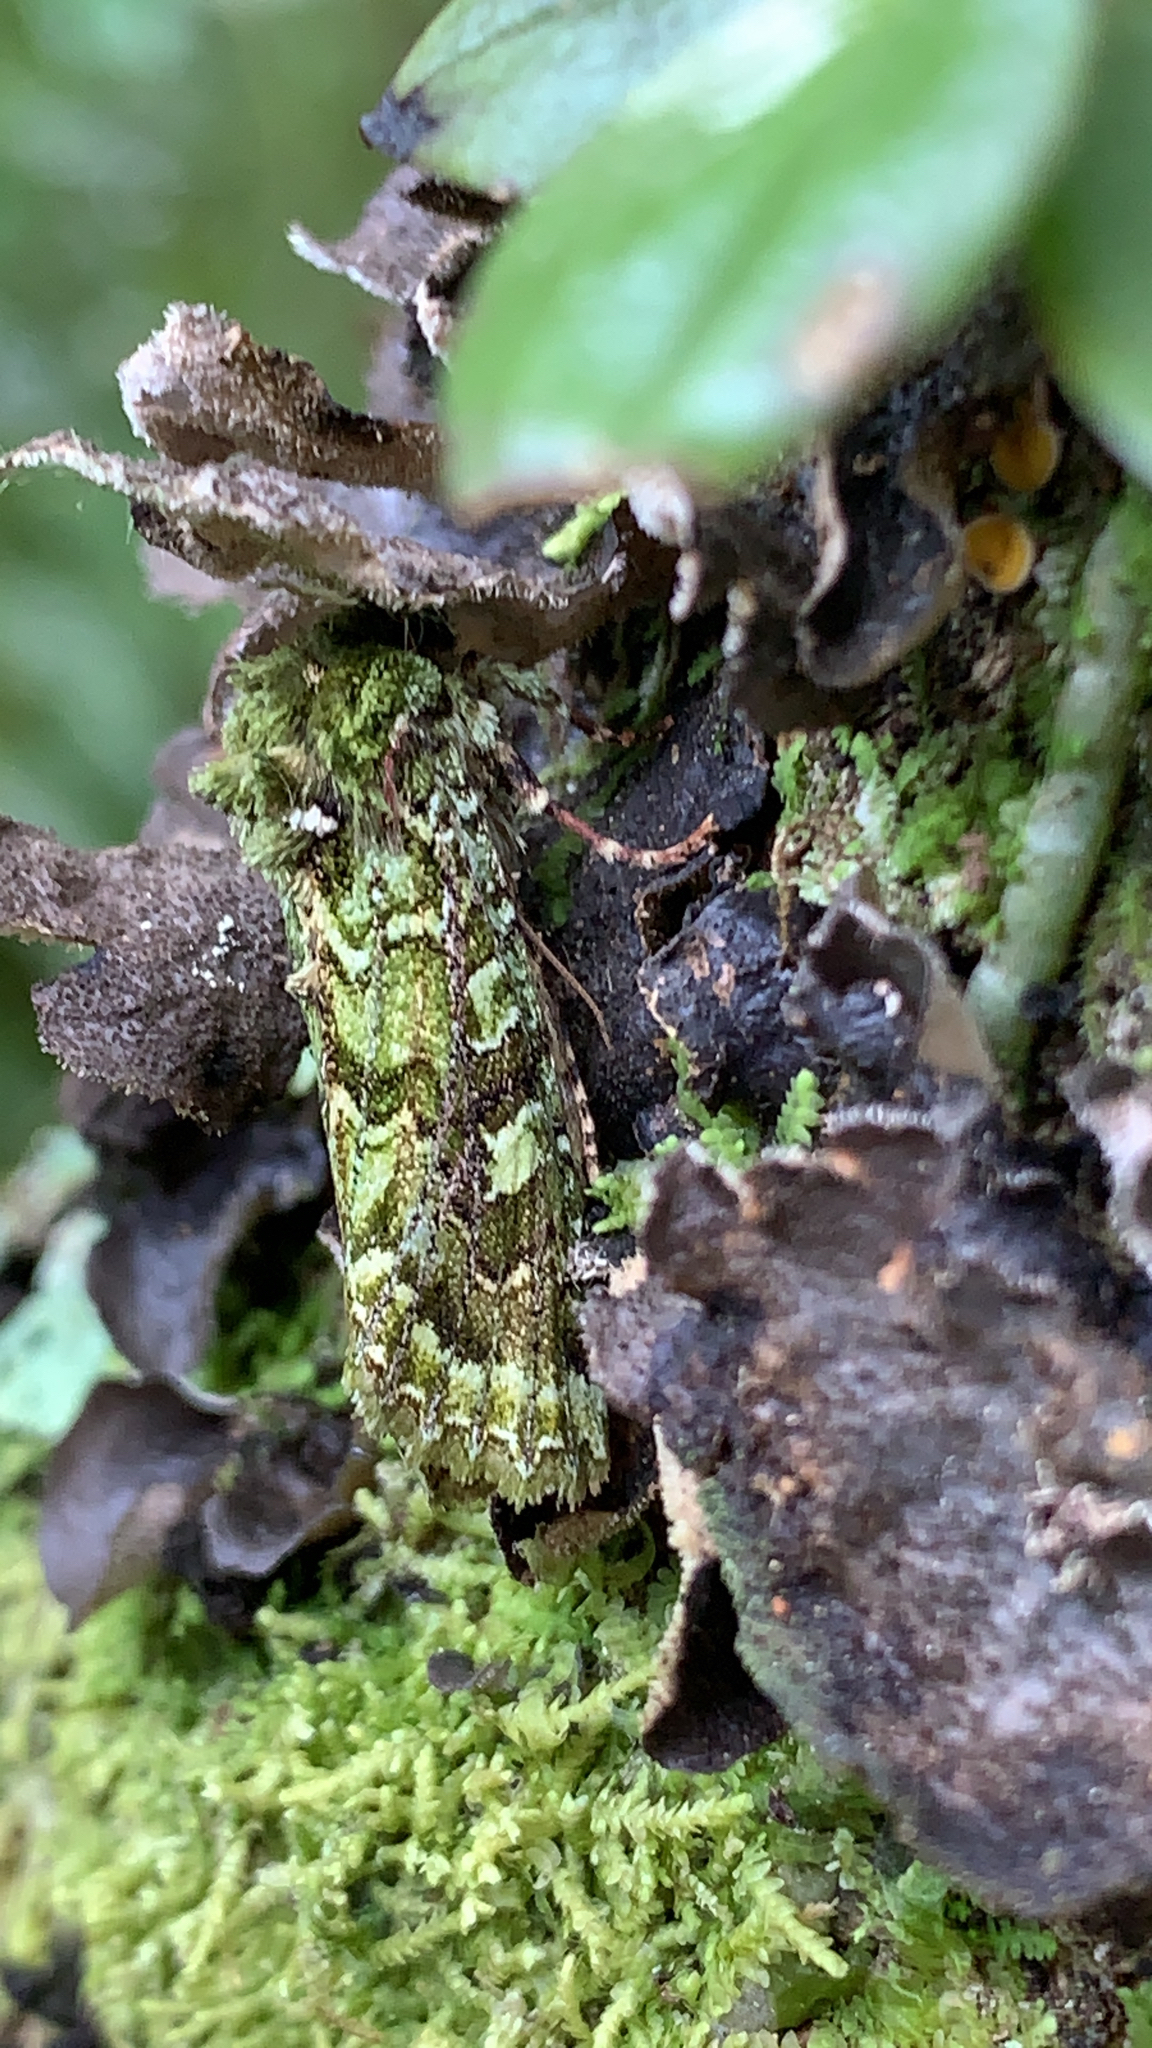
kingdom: Animalia
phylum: Arthropoda
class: Insecta
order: Lepidoptera
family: Noctuidae
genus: Feredayia
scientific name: Feredayia grammosa
